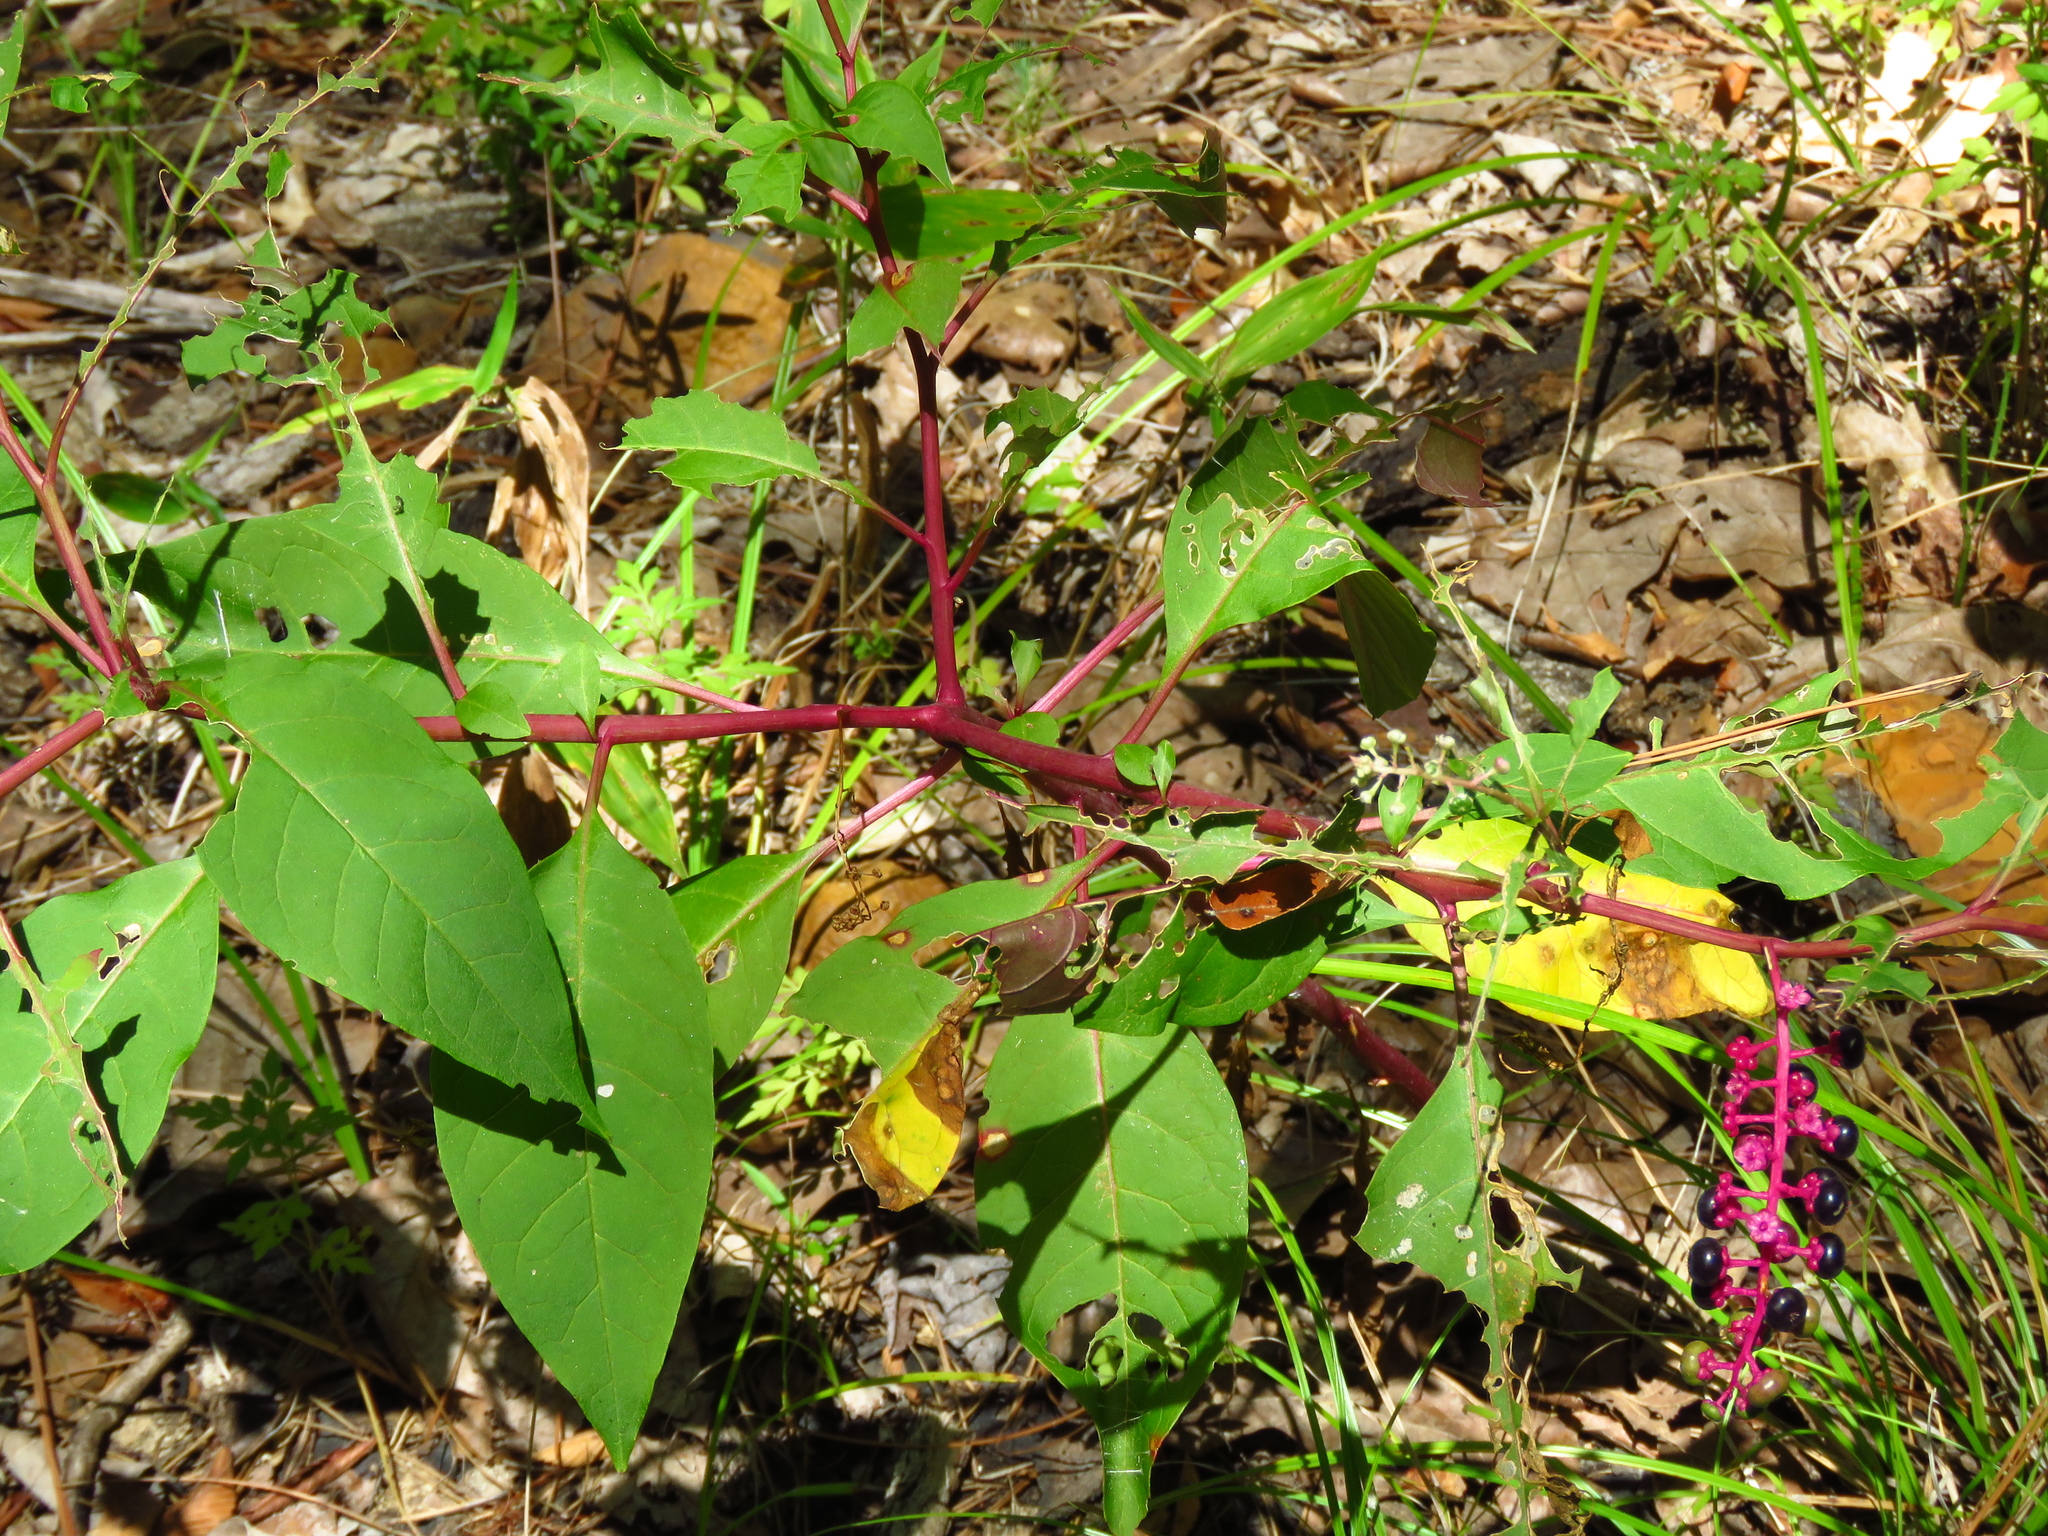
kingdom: Plantae
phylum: Tracheophyta
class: Magnoliopsida
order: Caryophyllales
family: Phytolaccaceae
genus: Phytolacca
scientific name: Phytolacca americana
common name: American pokeweed
